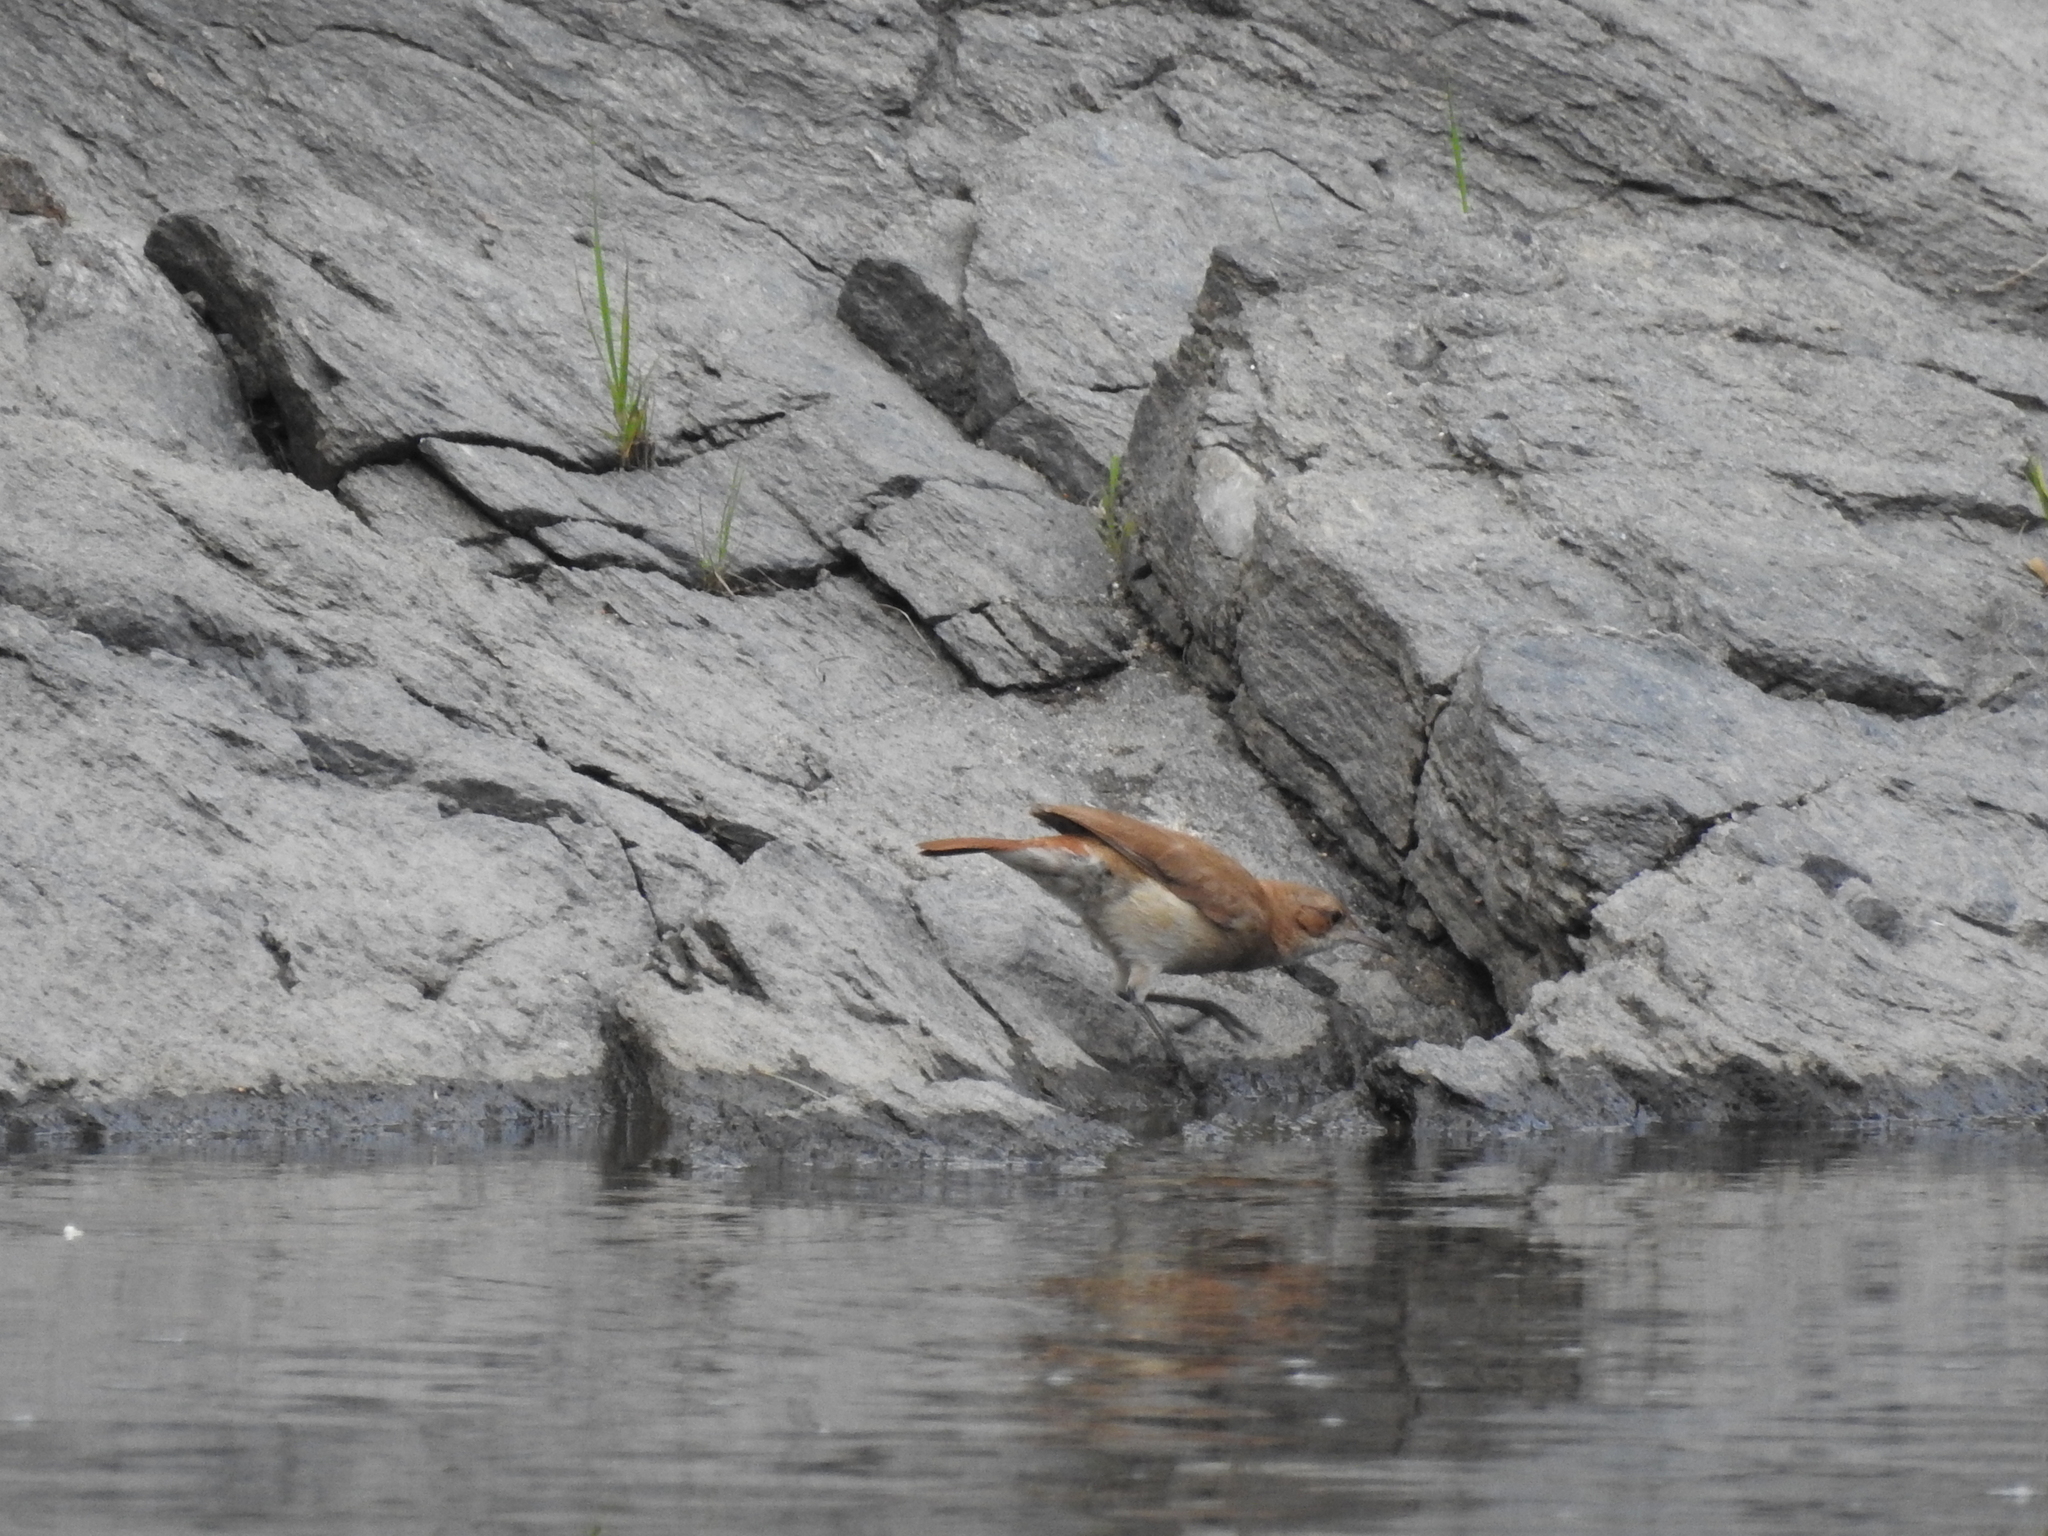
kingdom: Animalia
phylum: Chordata
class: Aves
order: Passeriformes
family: Furnariidae
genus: Furnarius
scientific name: Furnarius rufus
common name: Rufous hornero
